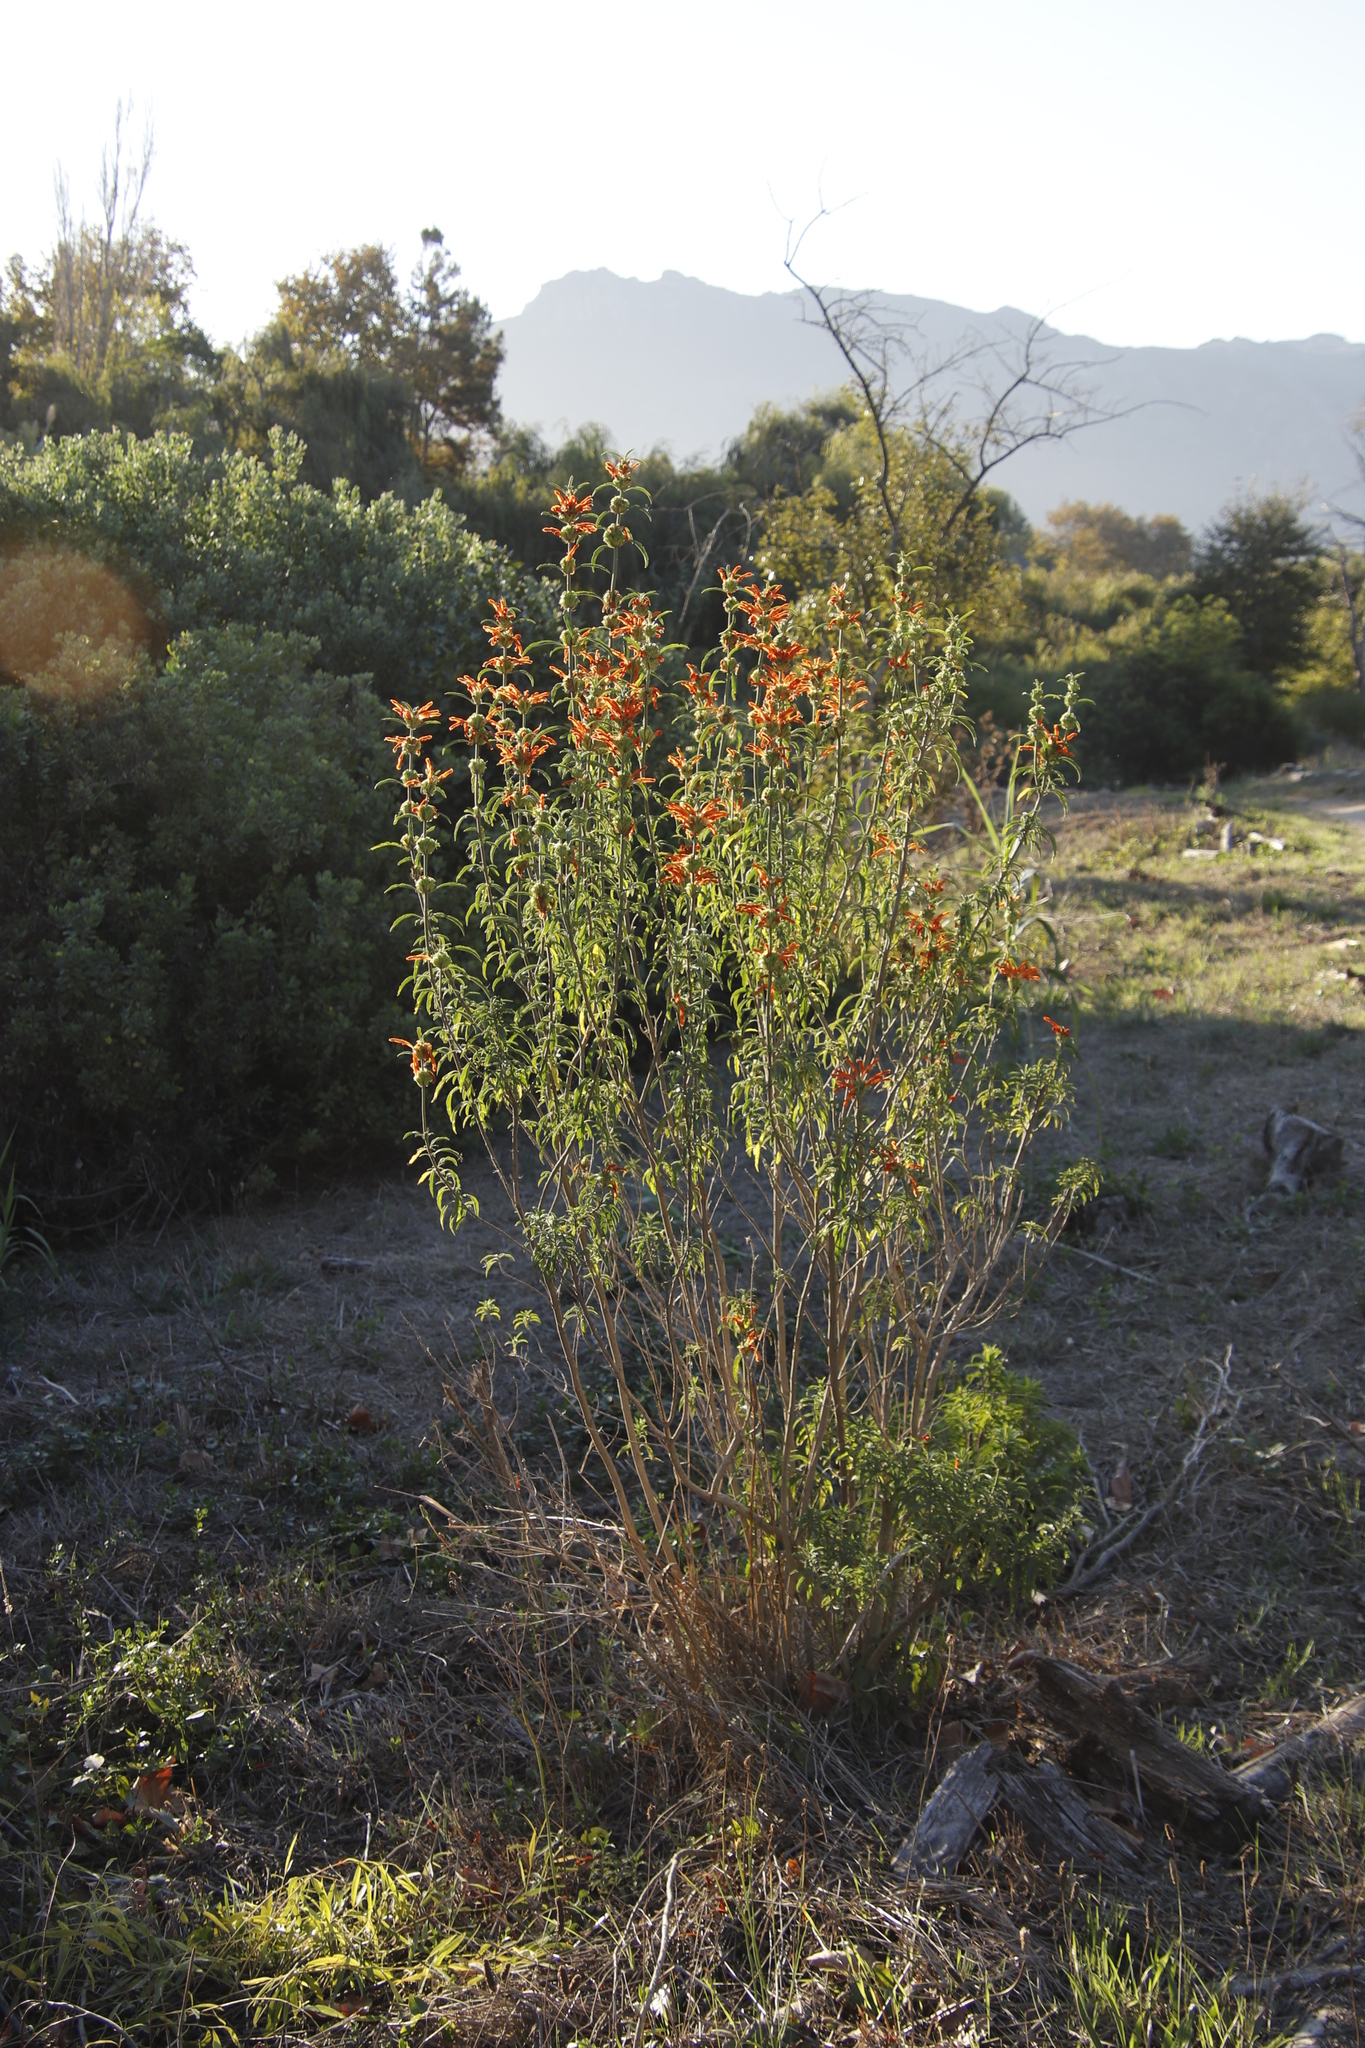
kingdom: Plantae
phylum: Tracheophyta
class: Magnoliopsida
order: Lamiales
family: Lamiaceae
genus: Leonotis
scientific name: Leonotis leonurus
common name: Lion's ear
